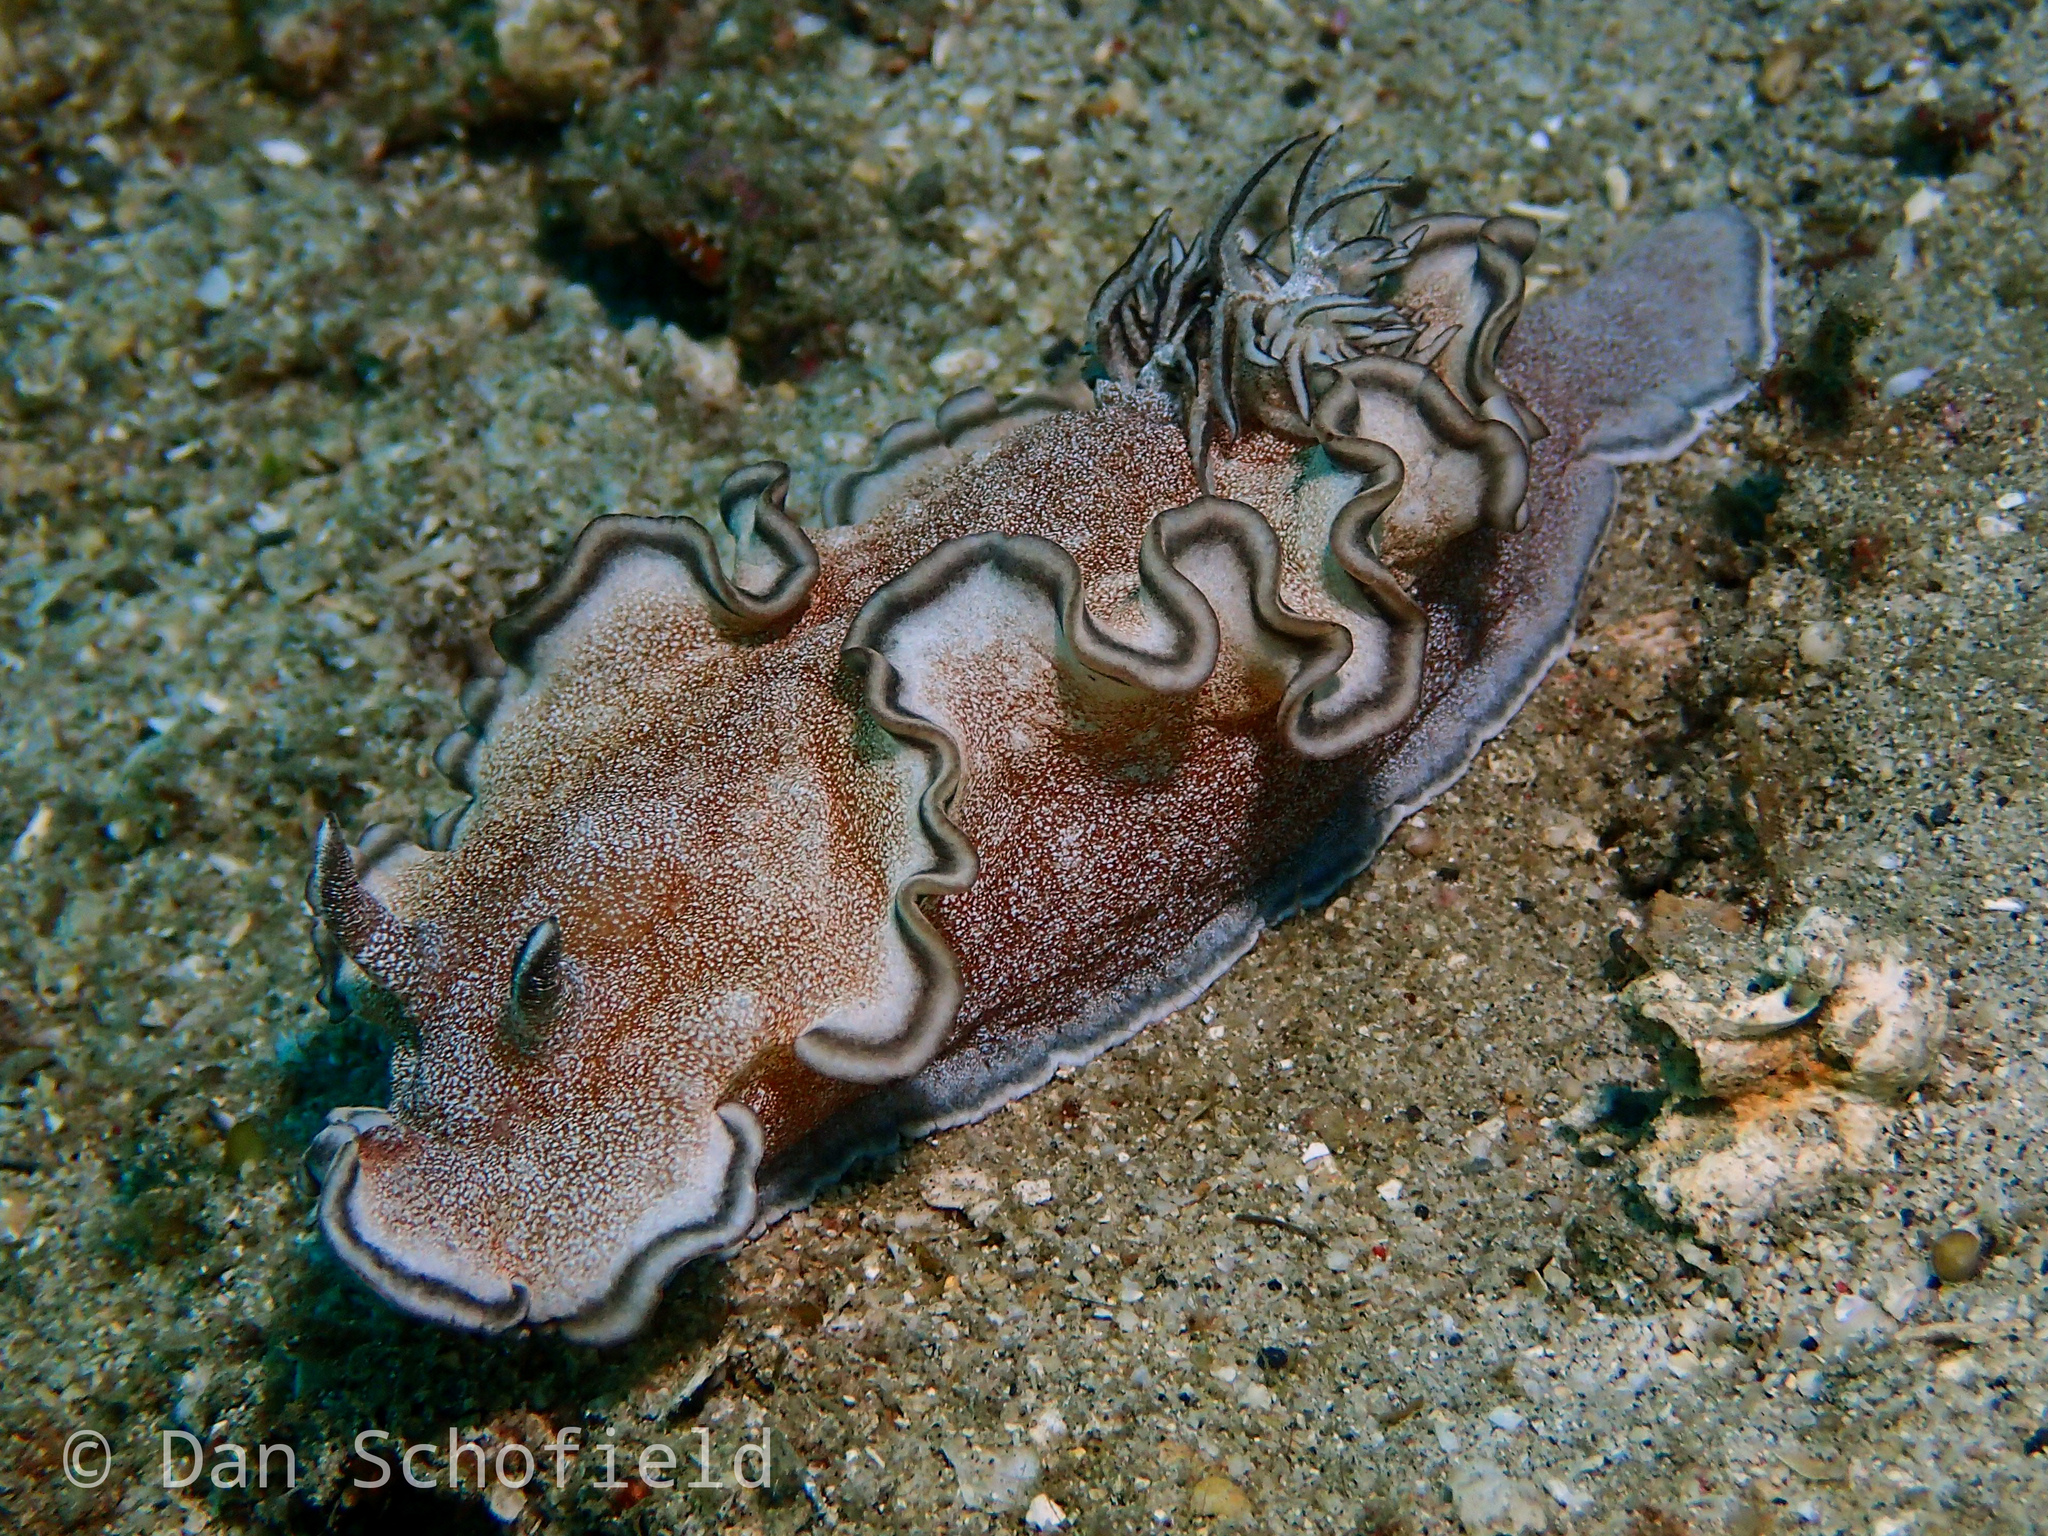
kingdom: Animalia
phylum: Mollusca
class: Gastropoda
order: Nudibranchia
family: Chromodorididae
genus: Glossodoris
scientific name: Glossodoris hikuerensis
